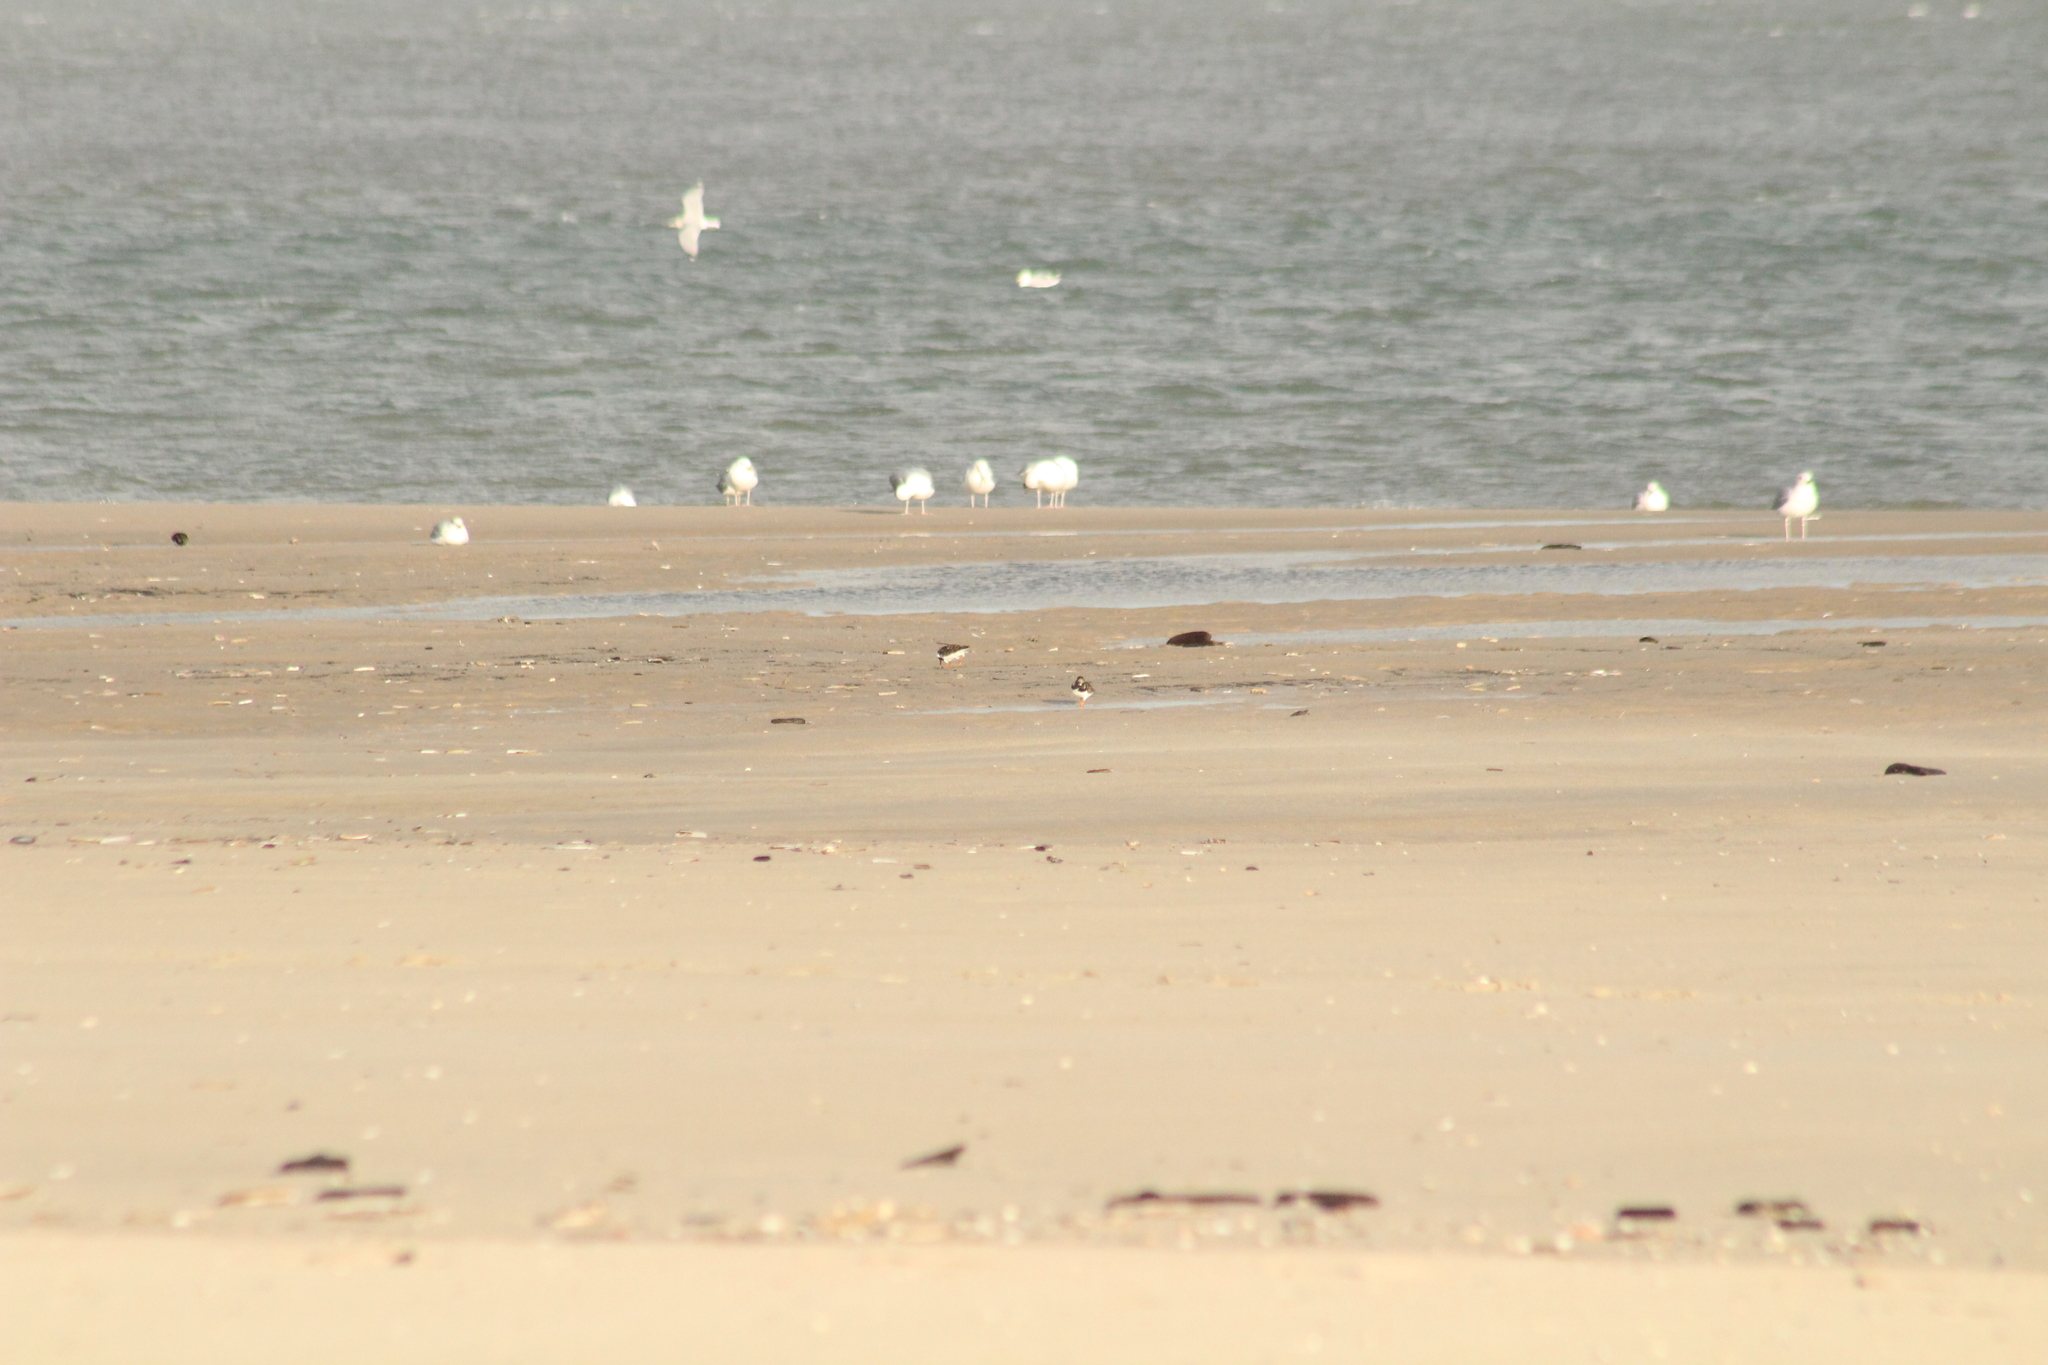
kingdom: Animalia
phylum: Chordata
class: Aves
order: Charadriiformes
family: Scolopacidae
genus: Arenaria
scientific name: Arenaria interpres
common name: Ruddy turnstone
